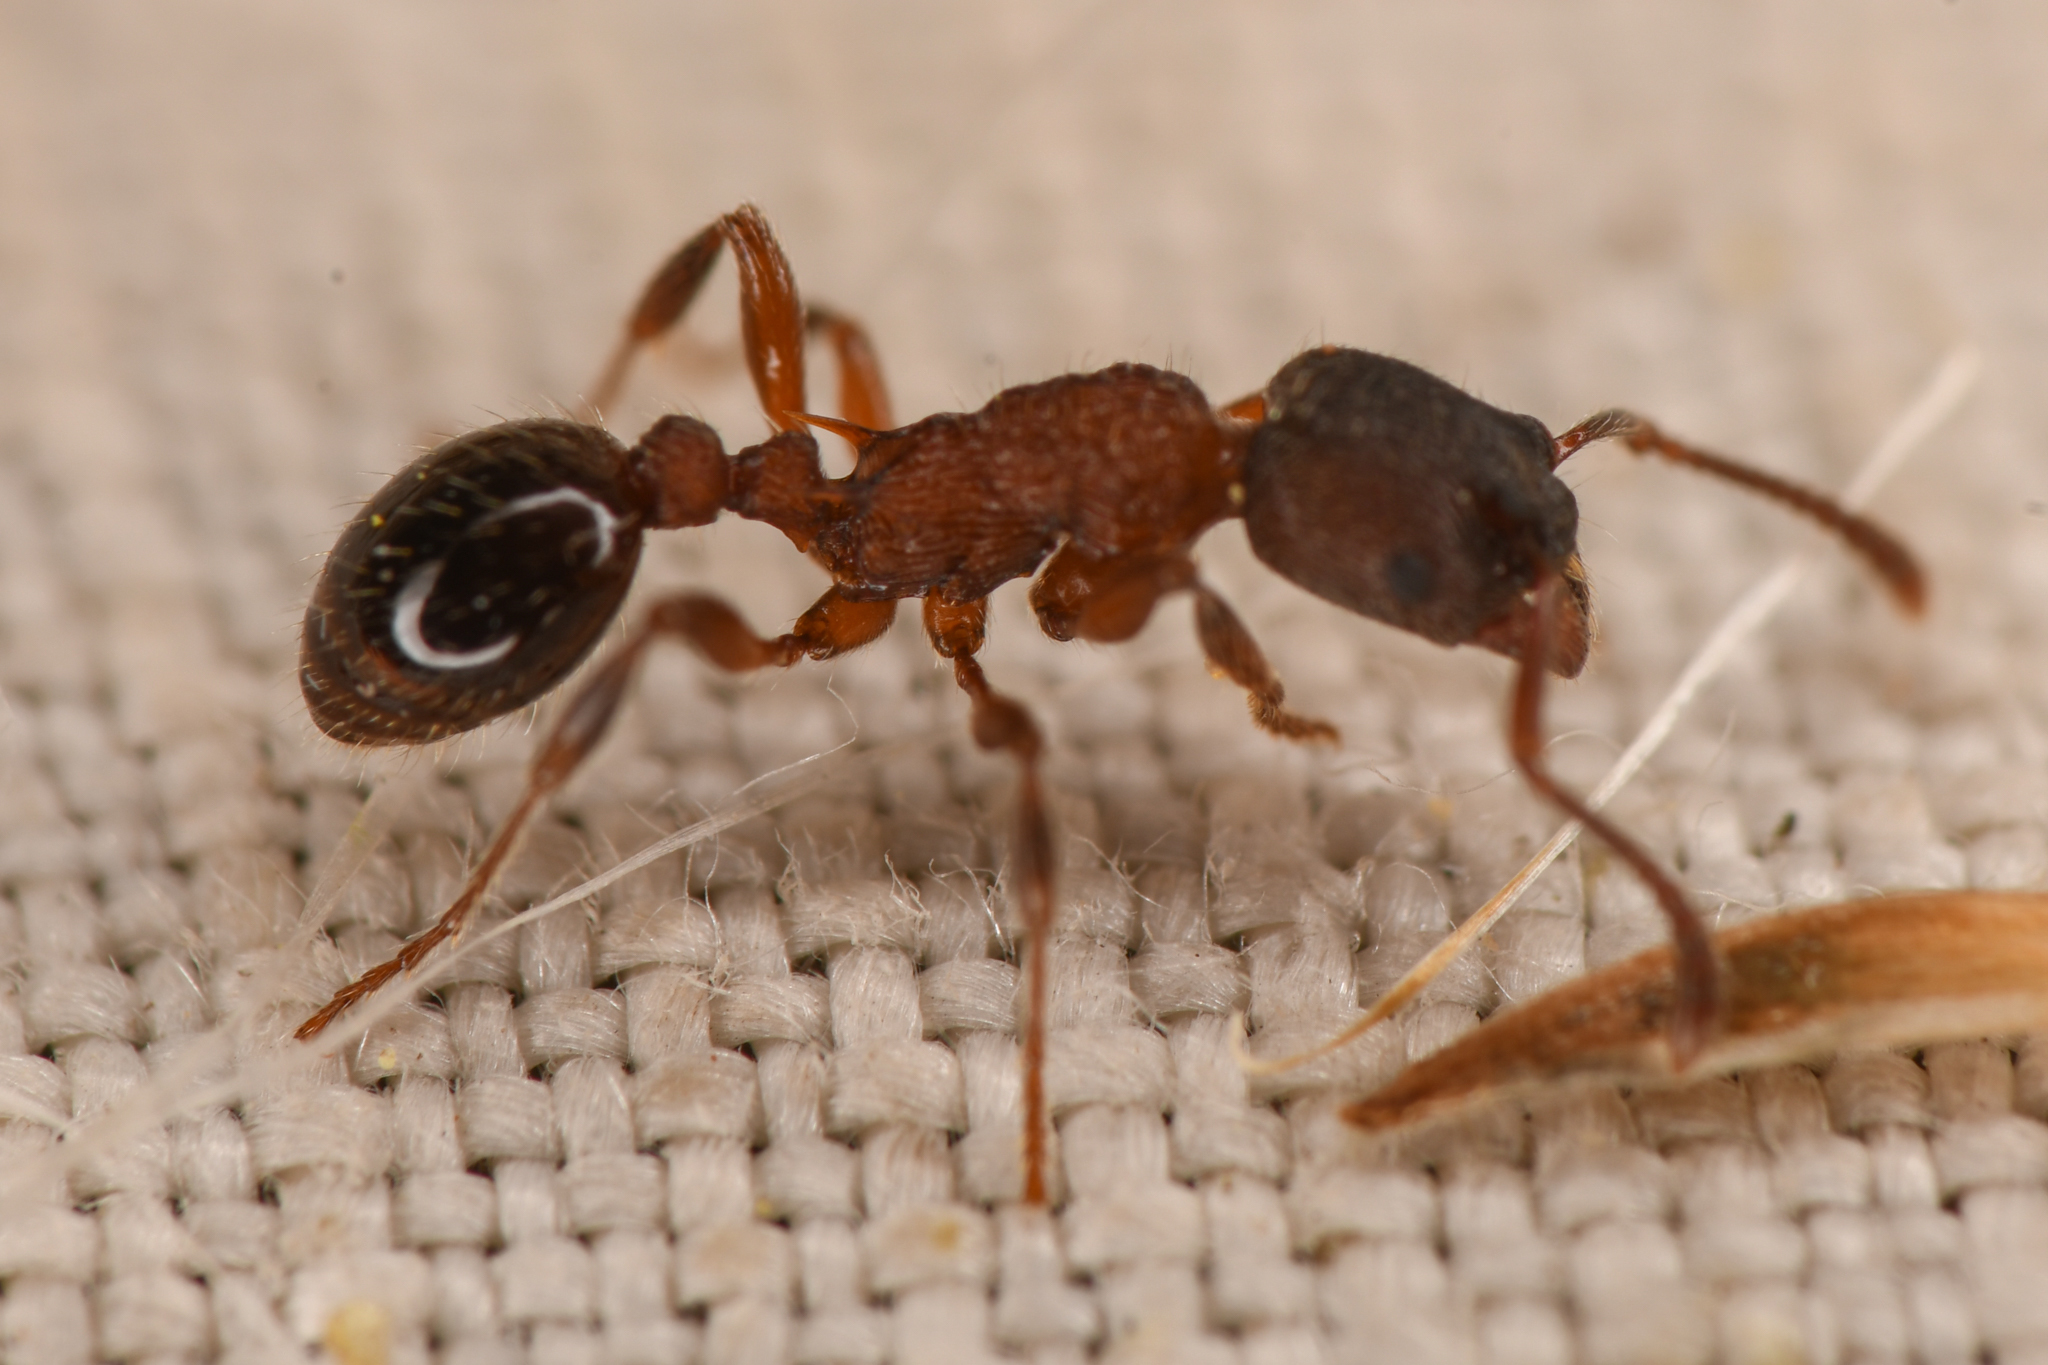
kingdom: Animalia
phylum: Arthropoda
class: Insecta
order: Hymenoptera
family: Formicidae
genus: Myrmica
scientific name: Myrmica incompleta
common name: Incomplete ant
